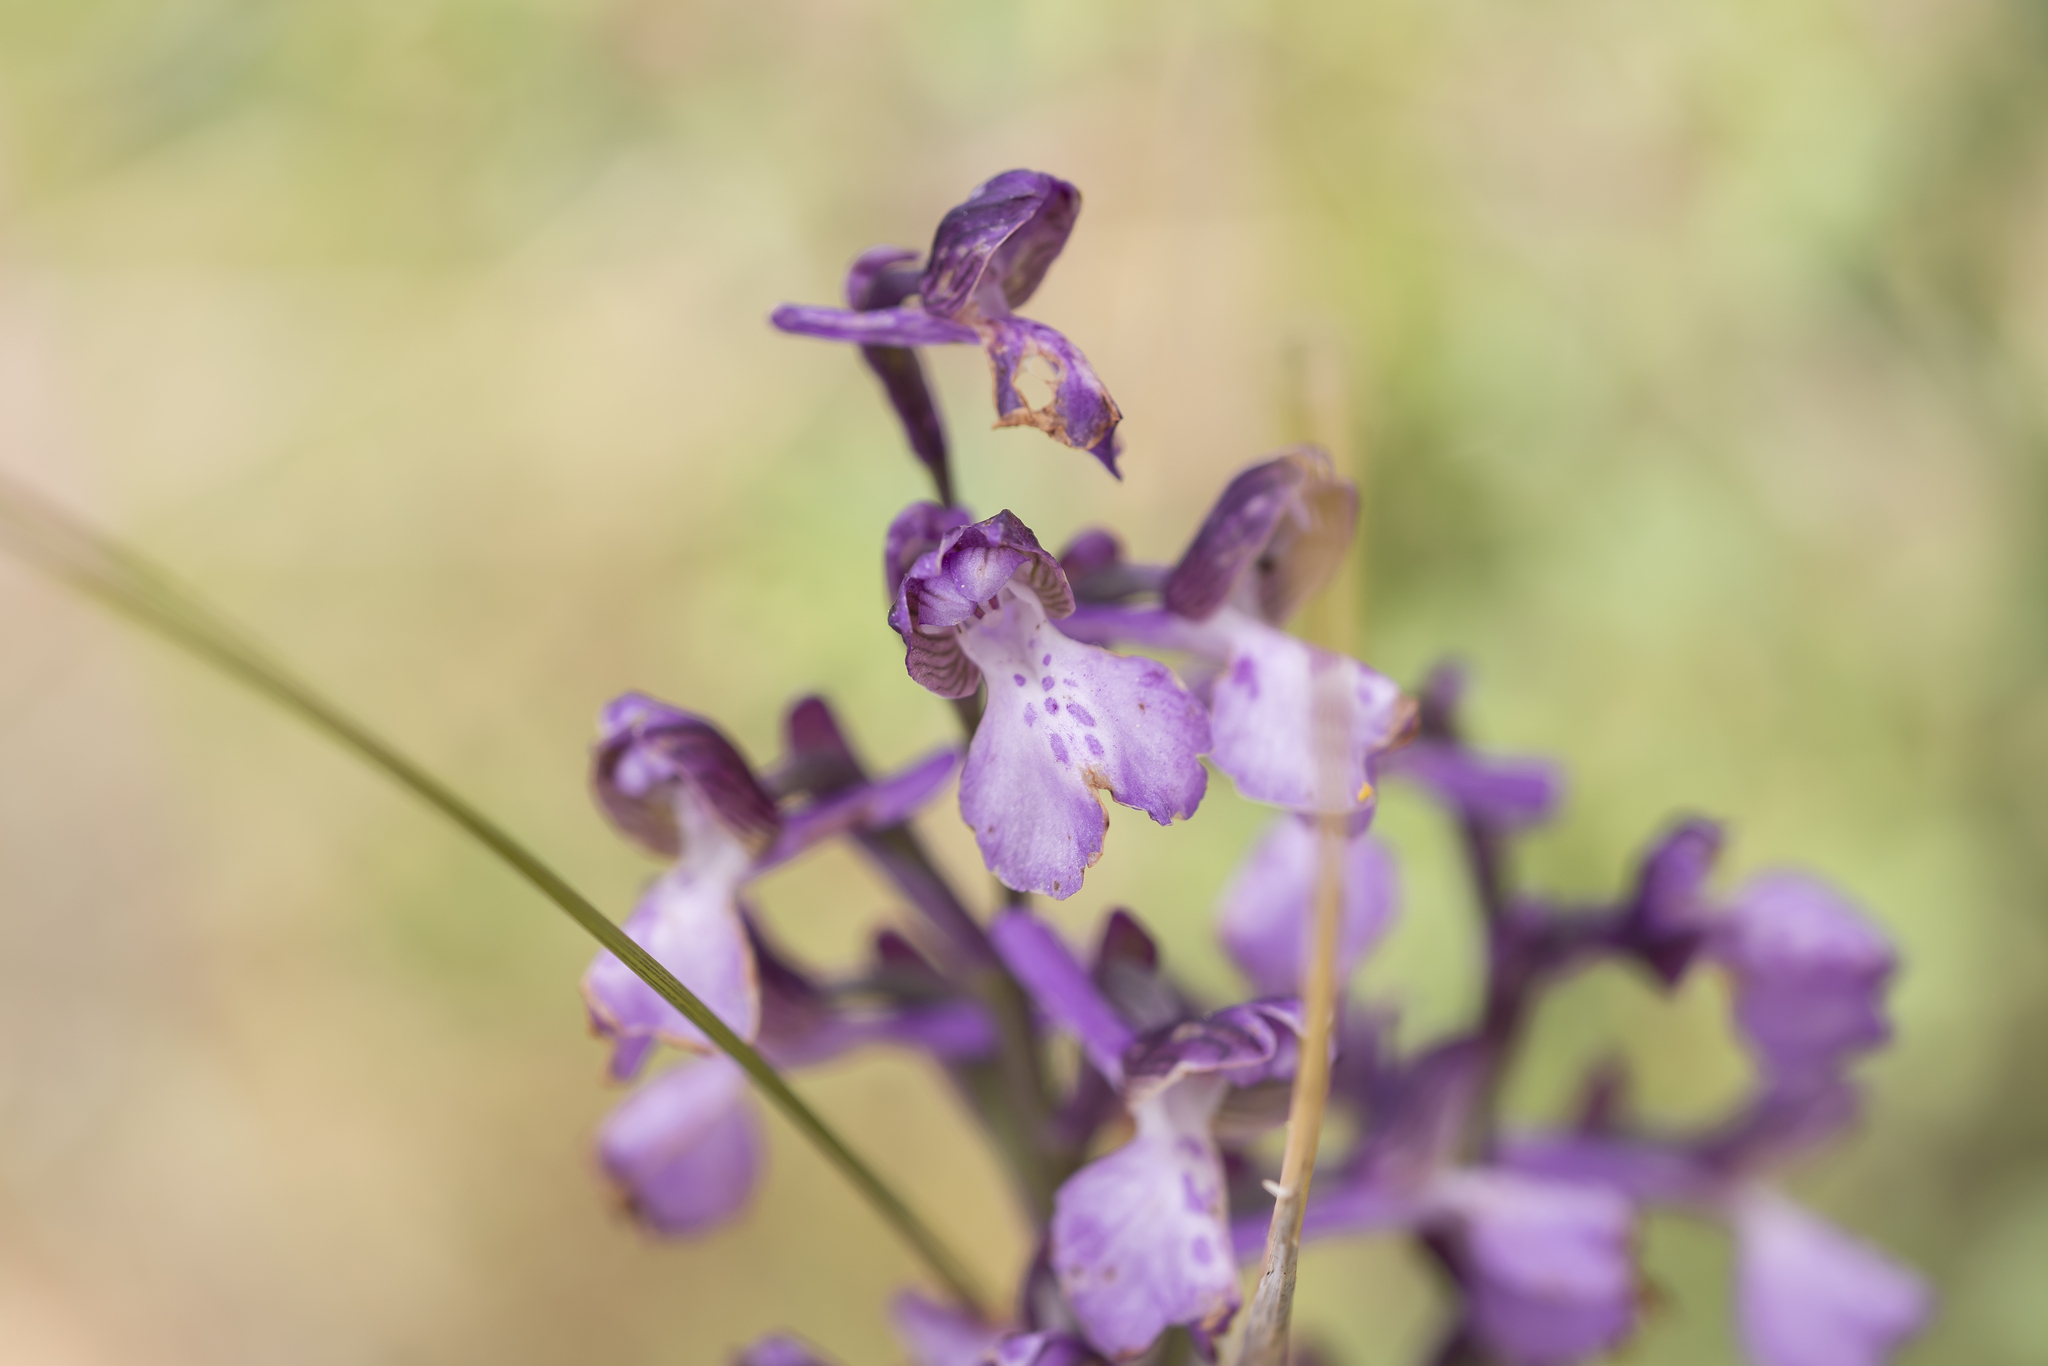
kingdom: Plantae
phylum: Tracheophyta
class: Liliopsida
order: Asparagales
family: Orchidaceae
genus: Anacamptis
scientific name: Anacamptis morio
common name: Green-winged orchid
